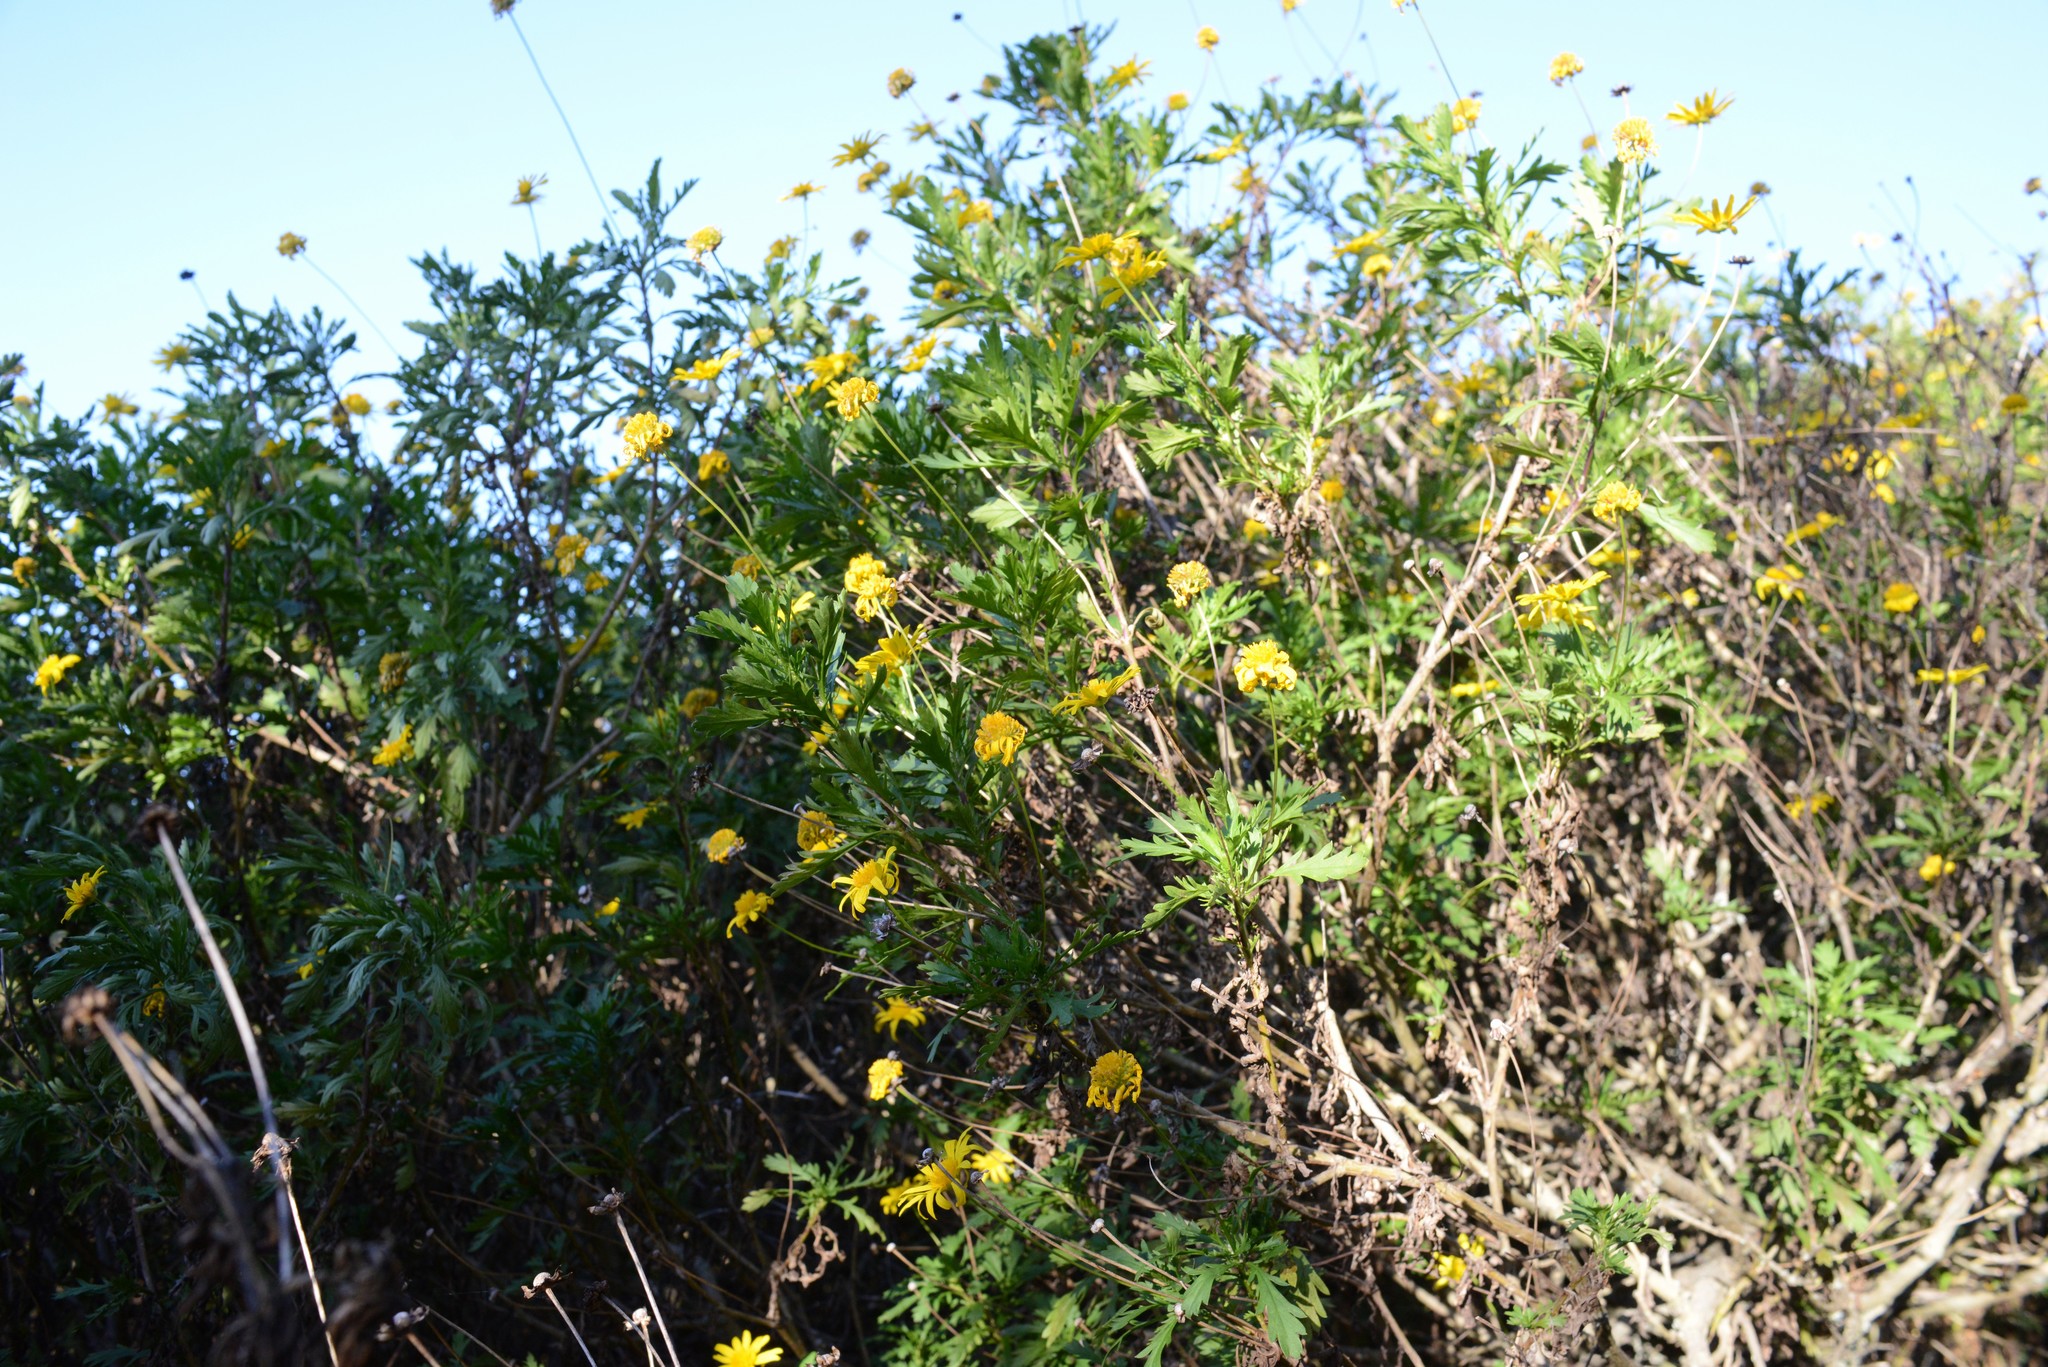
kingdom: Plantae
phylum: Tracheophyta
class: Magnoliopsida
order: Asterales
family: Asteraceae
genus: Euryops
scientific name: Euryops chrysanthemoides
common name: Bull's eye
